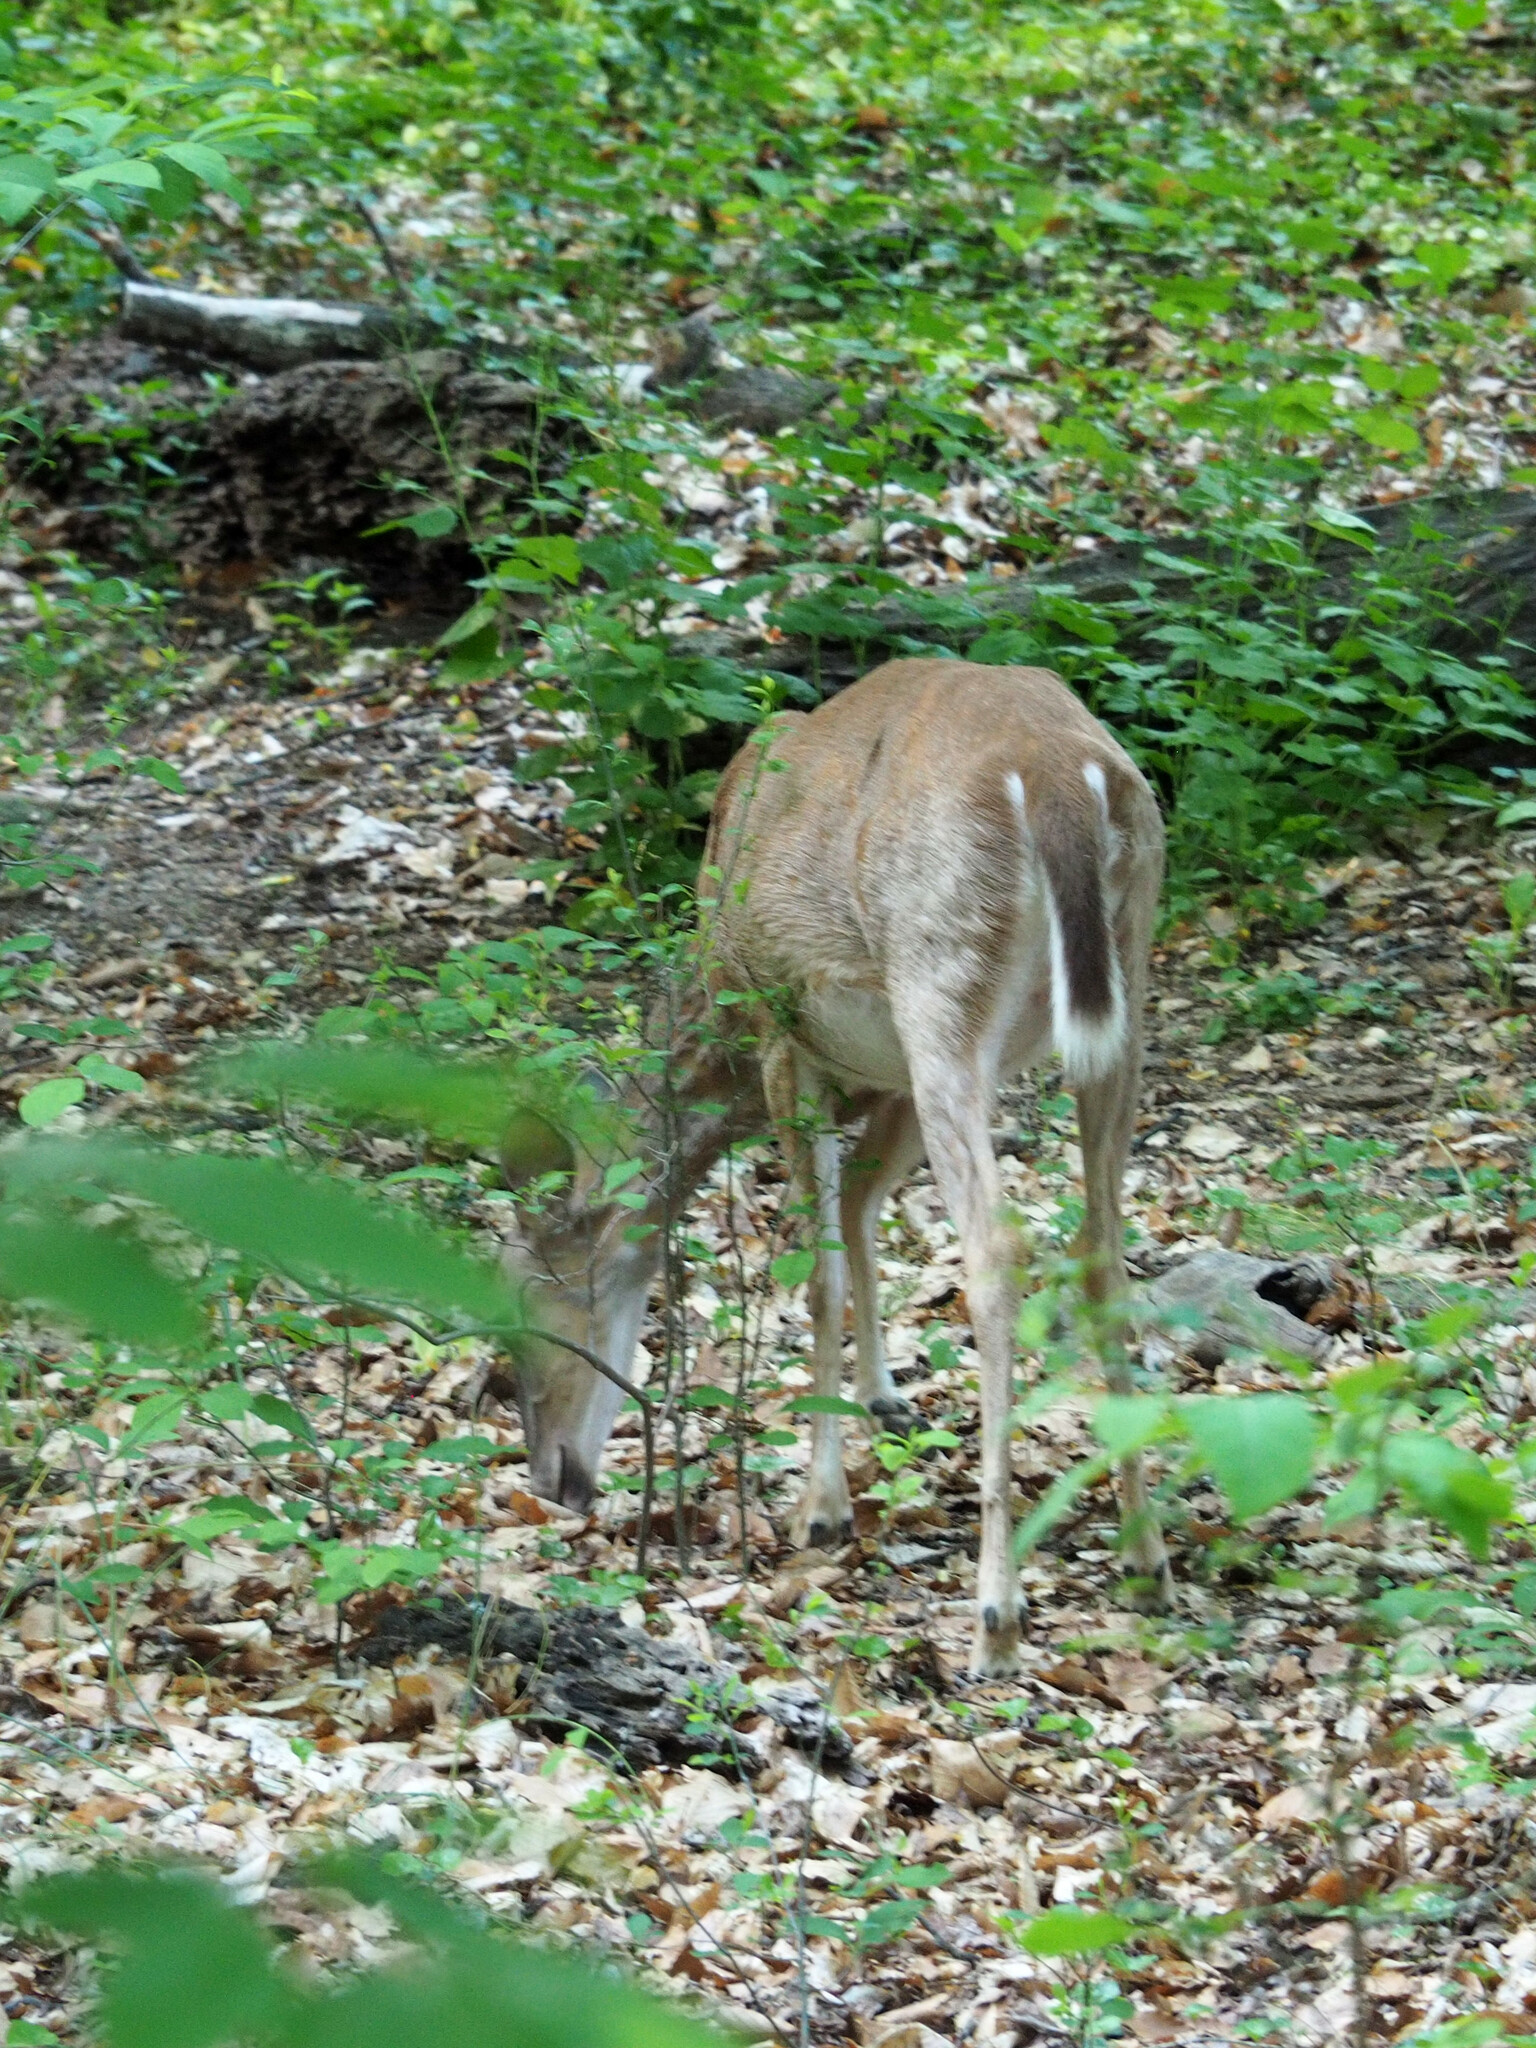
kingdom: Animalia
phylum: Chordata
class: Mammalia
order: Artiodactyla
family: Cervidae
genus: Odocoileus
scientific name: Odocoileus virginianus
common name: White-tailed deer
